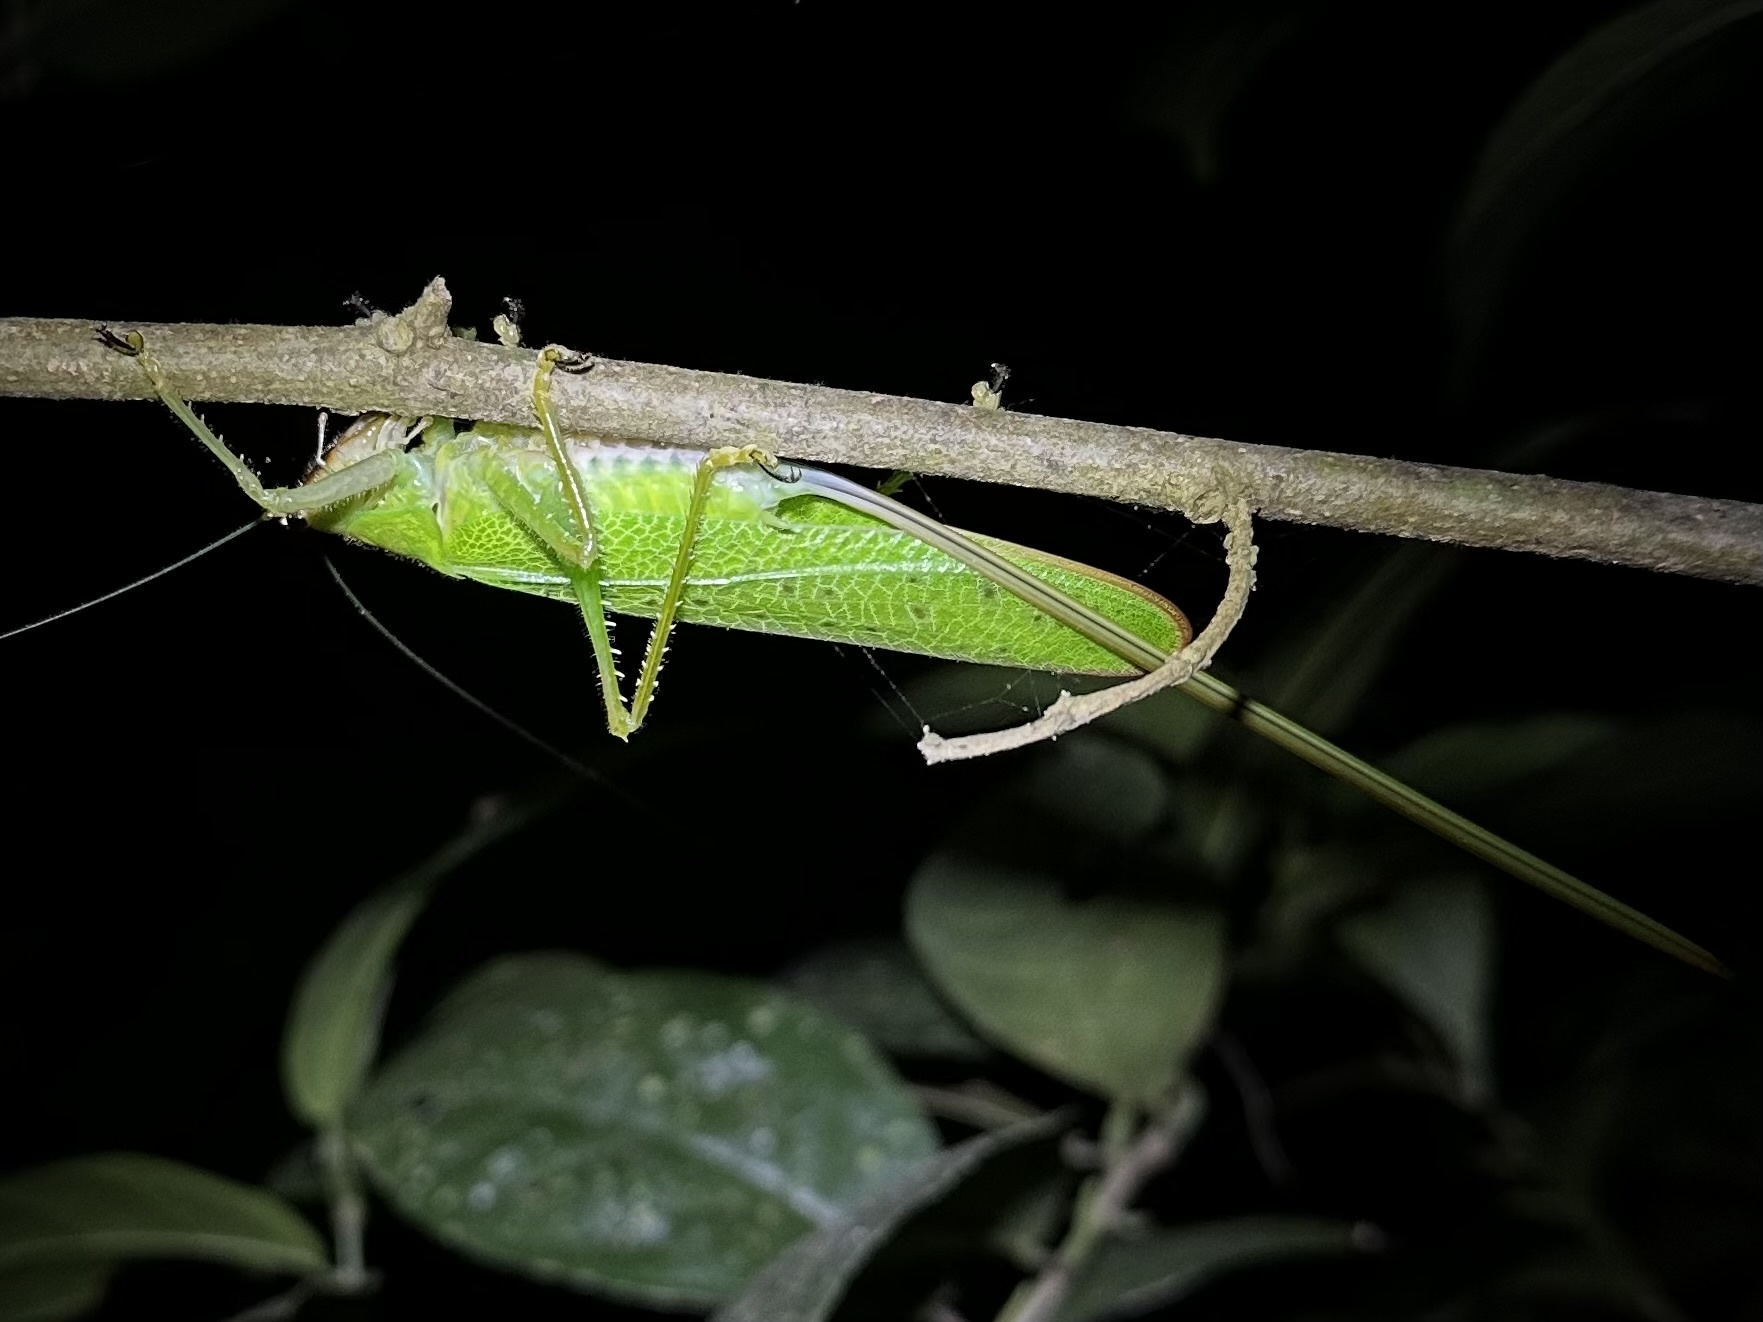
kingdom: Animalia
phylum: Arthropoda
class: Insecta
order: Orthoptera
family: Tettigoniidae
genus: Copiphora
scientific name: Copiphora brevirostris
